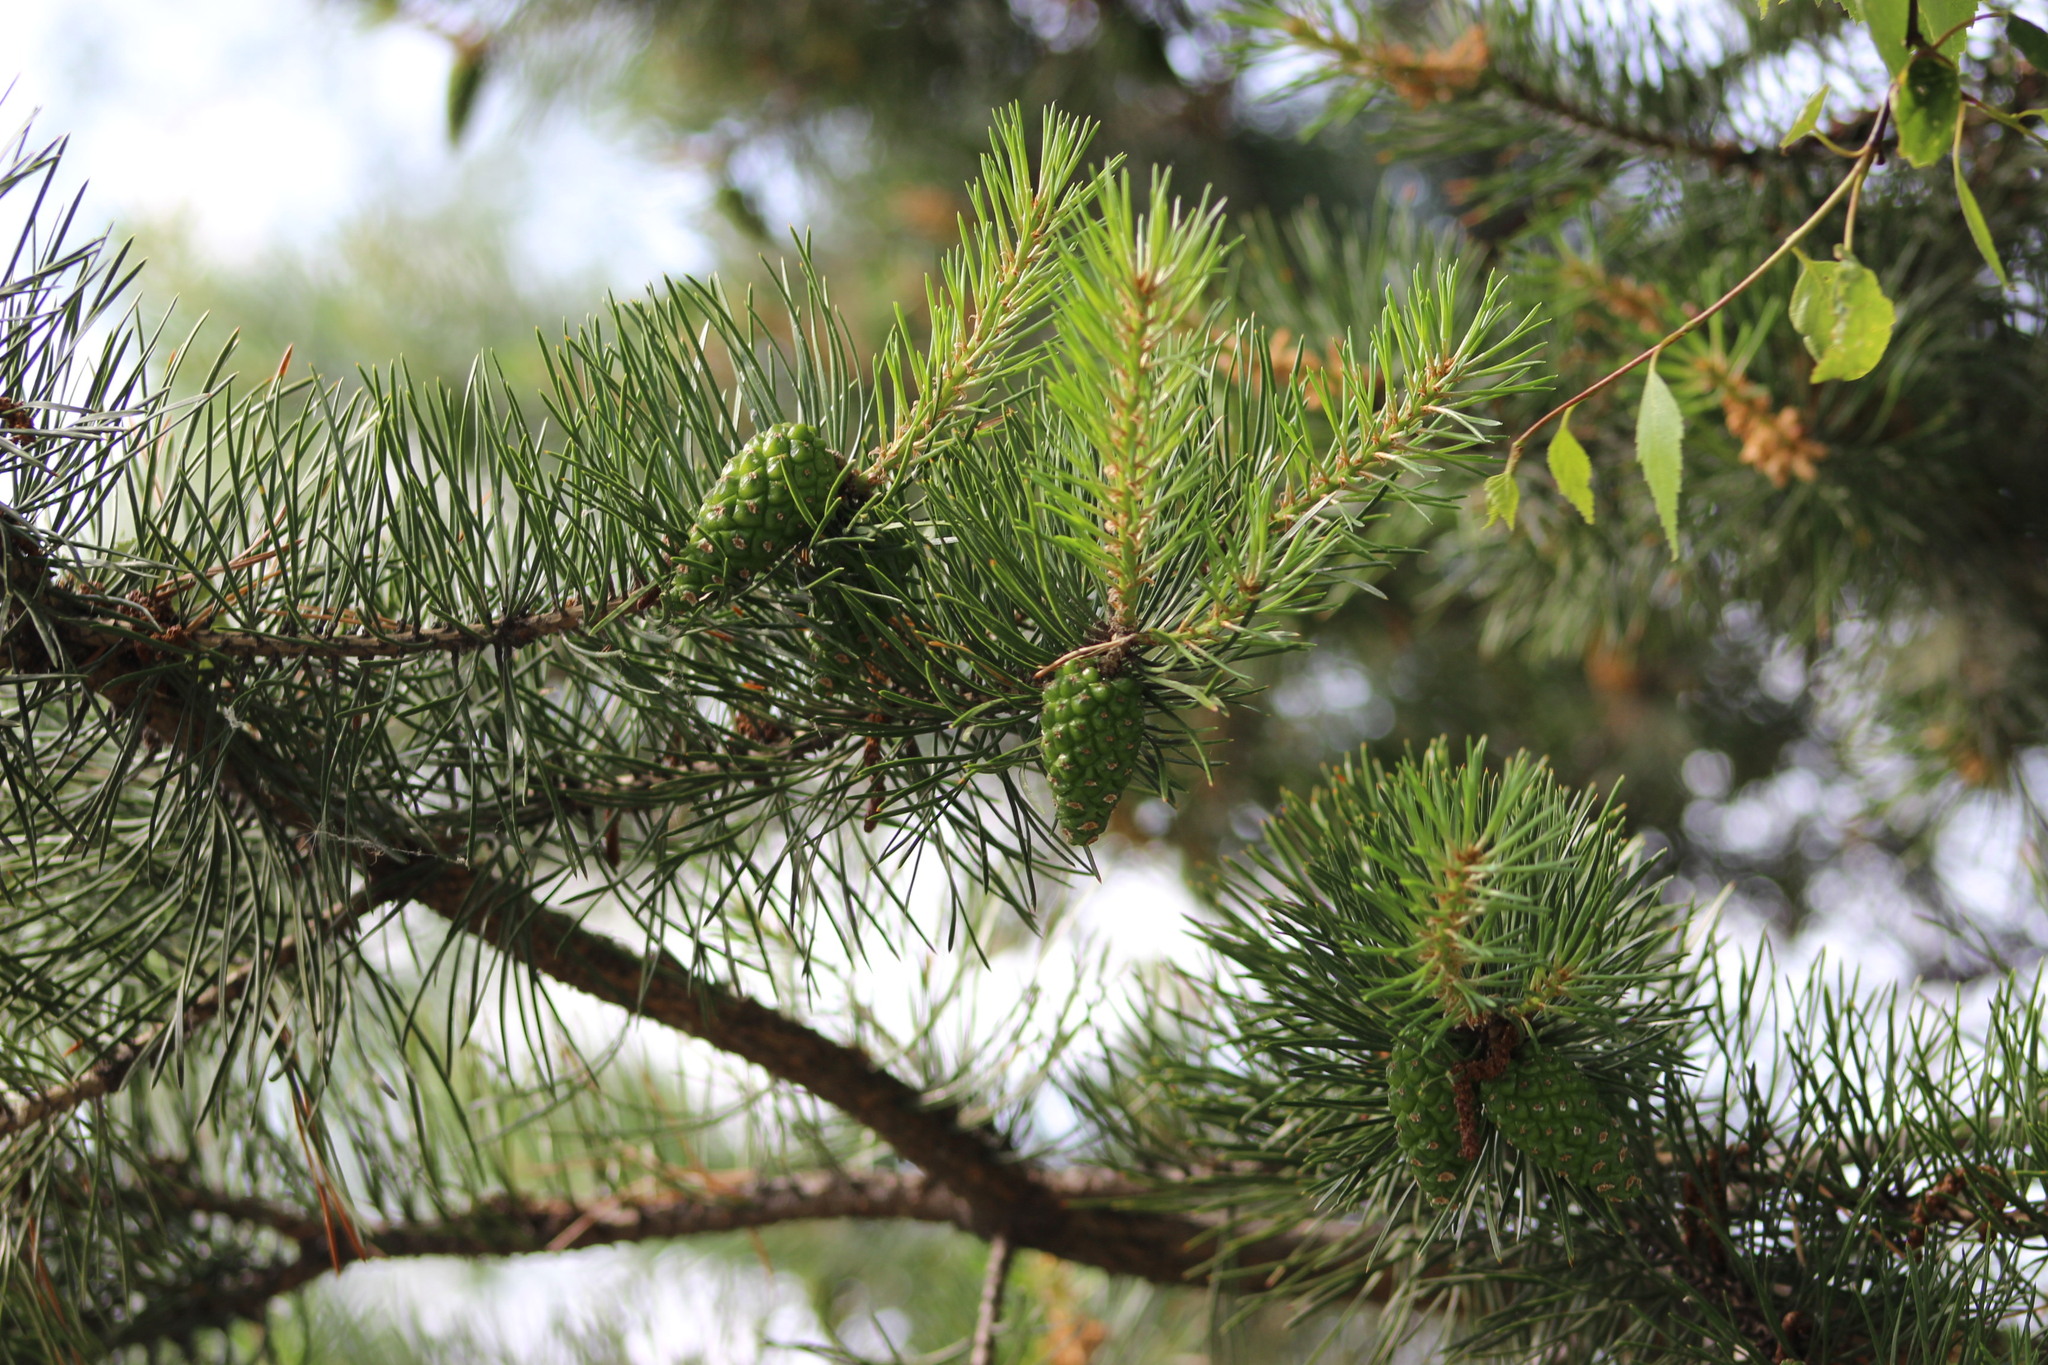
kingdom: Plantae
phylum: Tracheophyta
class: Pinopsida
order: Pinales
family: Pinaceae
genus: Pinus
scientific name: Pinus sylvestris
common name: Scots pine
